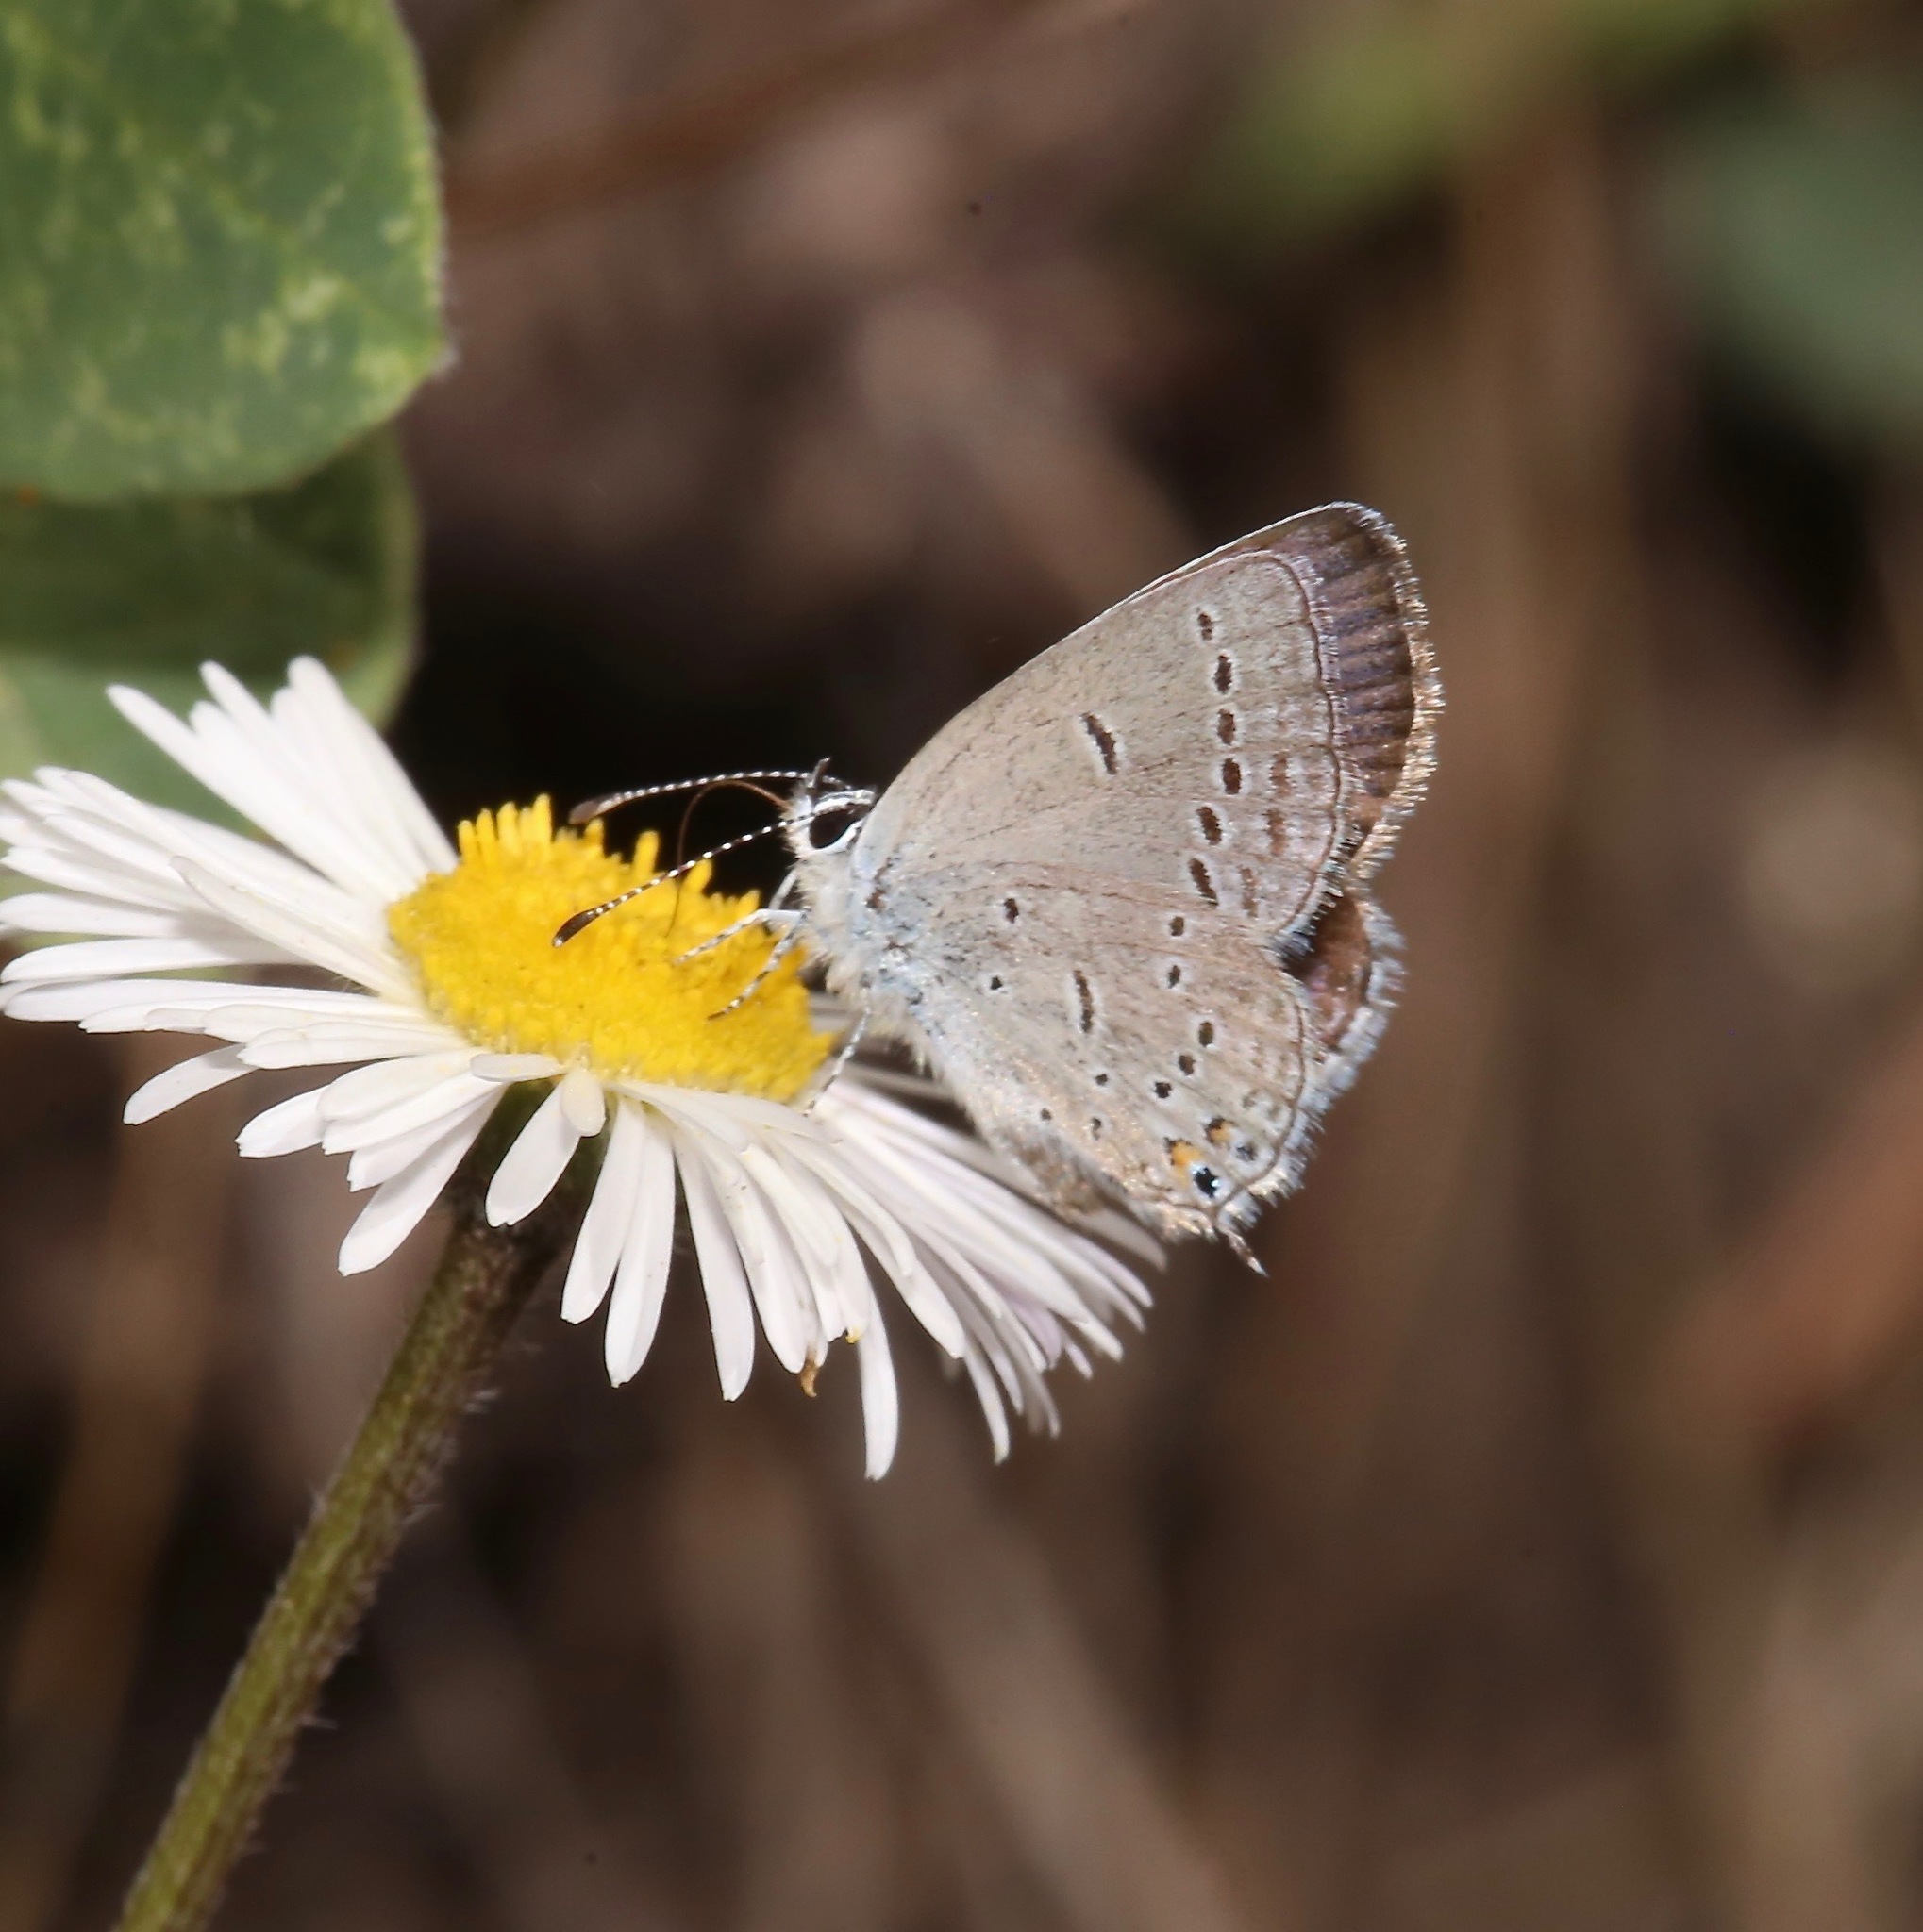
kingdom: Animalia
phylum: Arthropoda
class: Insecta
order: Lepidoptera
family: Lycaenidae
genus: Elkalyce
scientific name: Elkalyce amyntula
